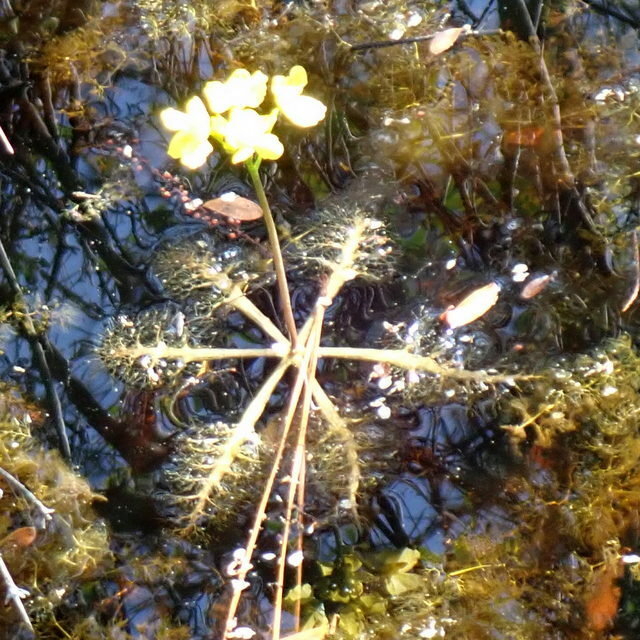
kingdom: Plantae
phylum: Tracheophyta
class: Magnoliopsida
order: Lamiales
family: Lentibulariaceae
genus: Utricularia
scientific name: Utricularia inflata
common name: Floating bladderwort
